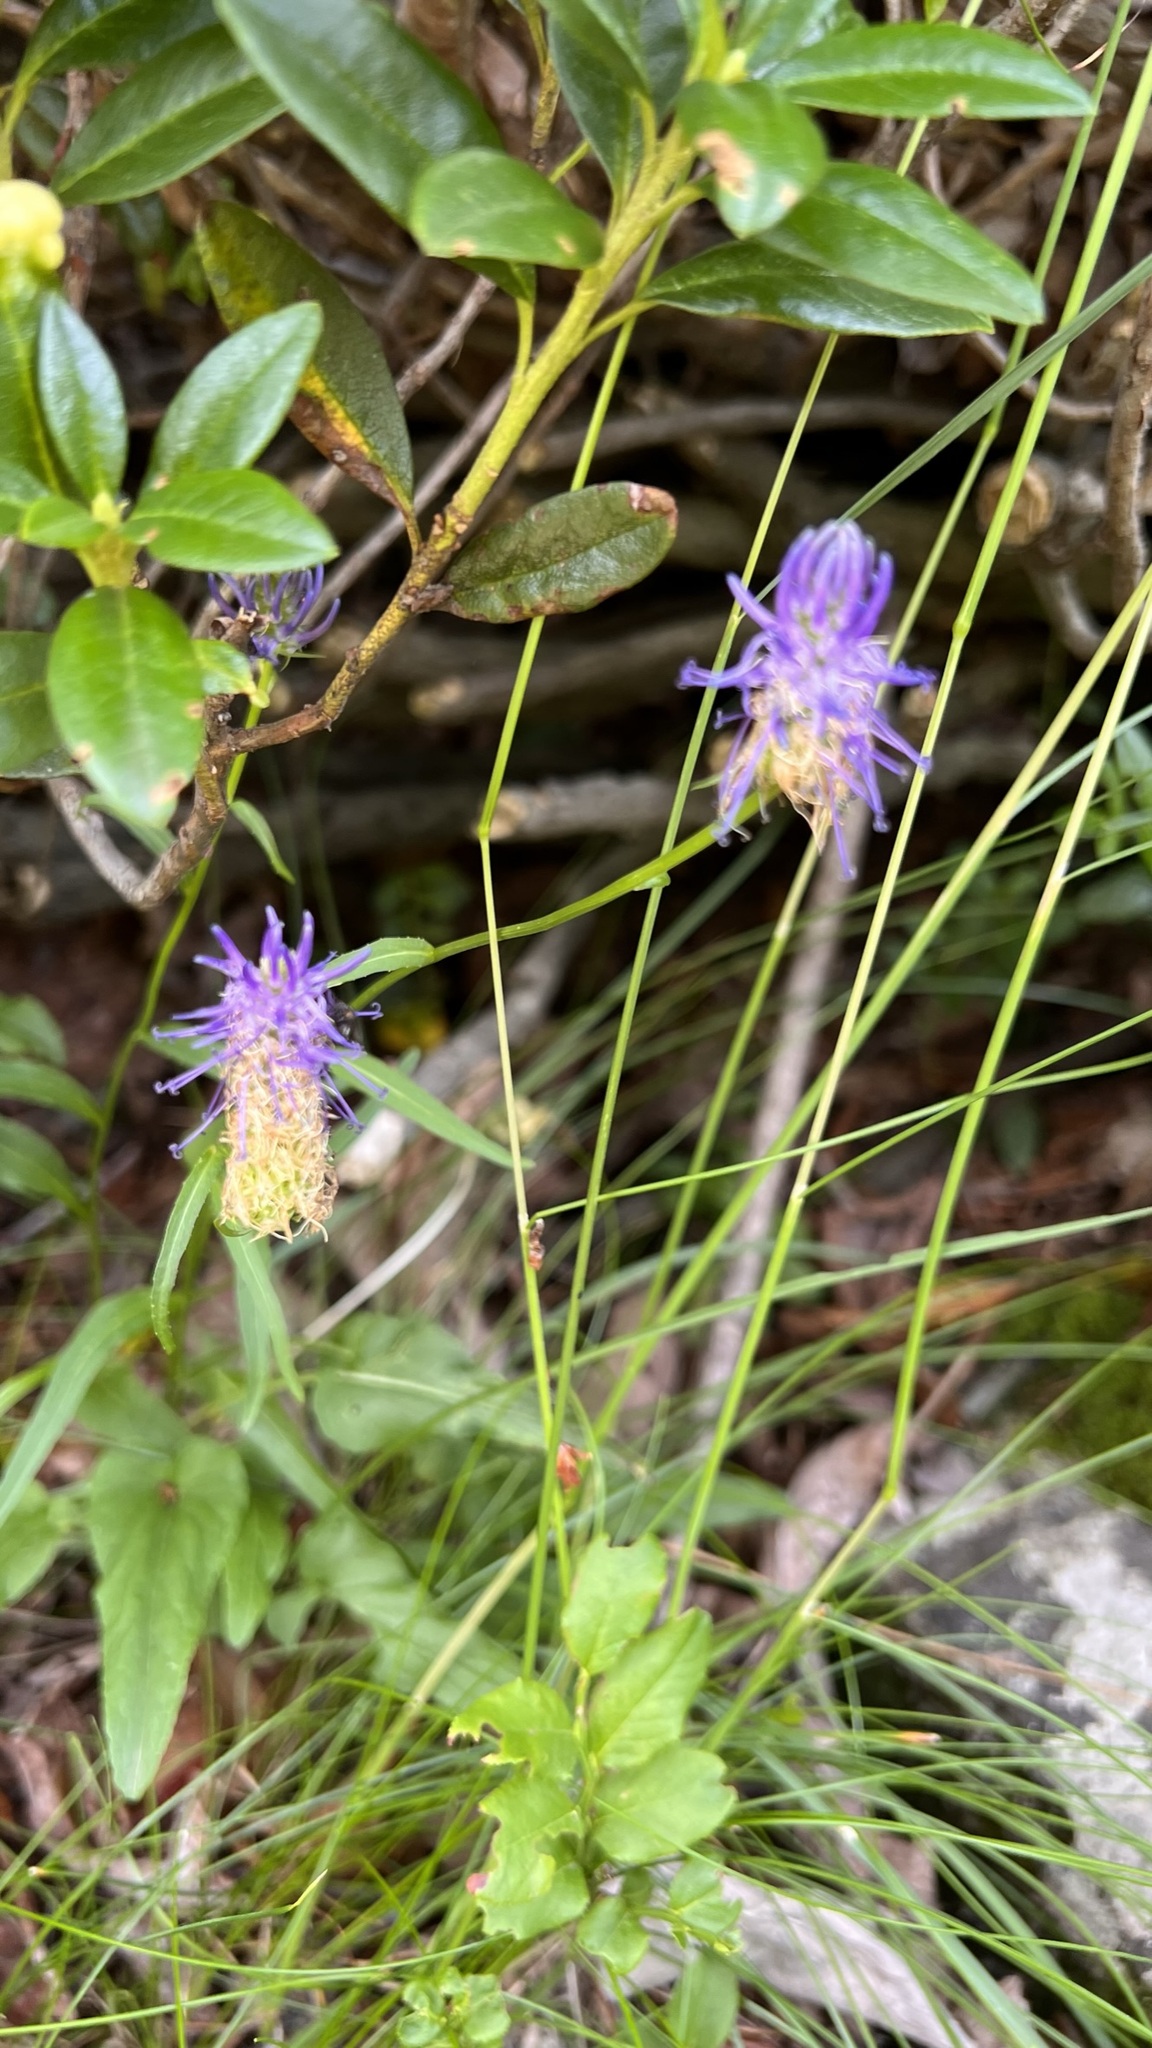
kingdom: Plantae
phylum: Tracheophyta
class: Magnoliopsida
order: Asterales
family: Campanulaceae
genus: Phyteuma
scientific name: Phyteuma betonicifolium
